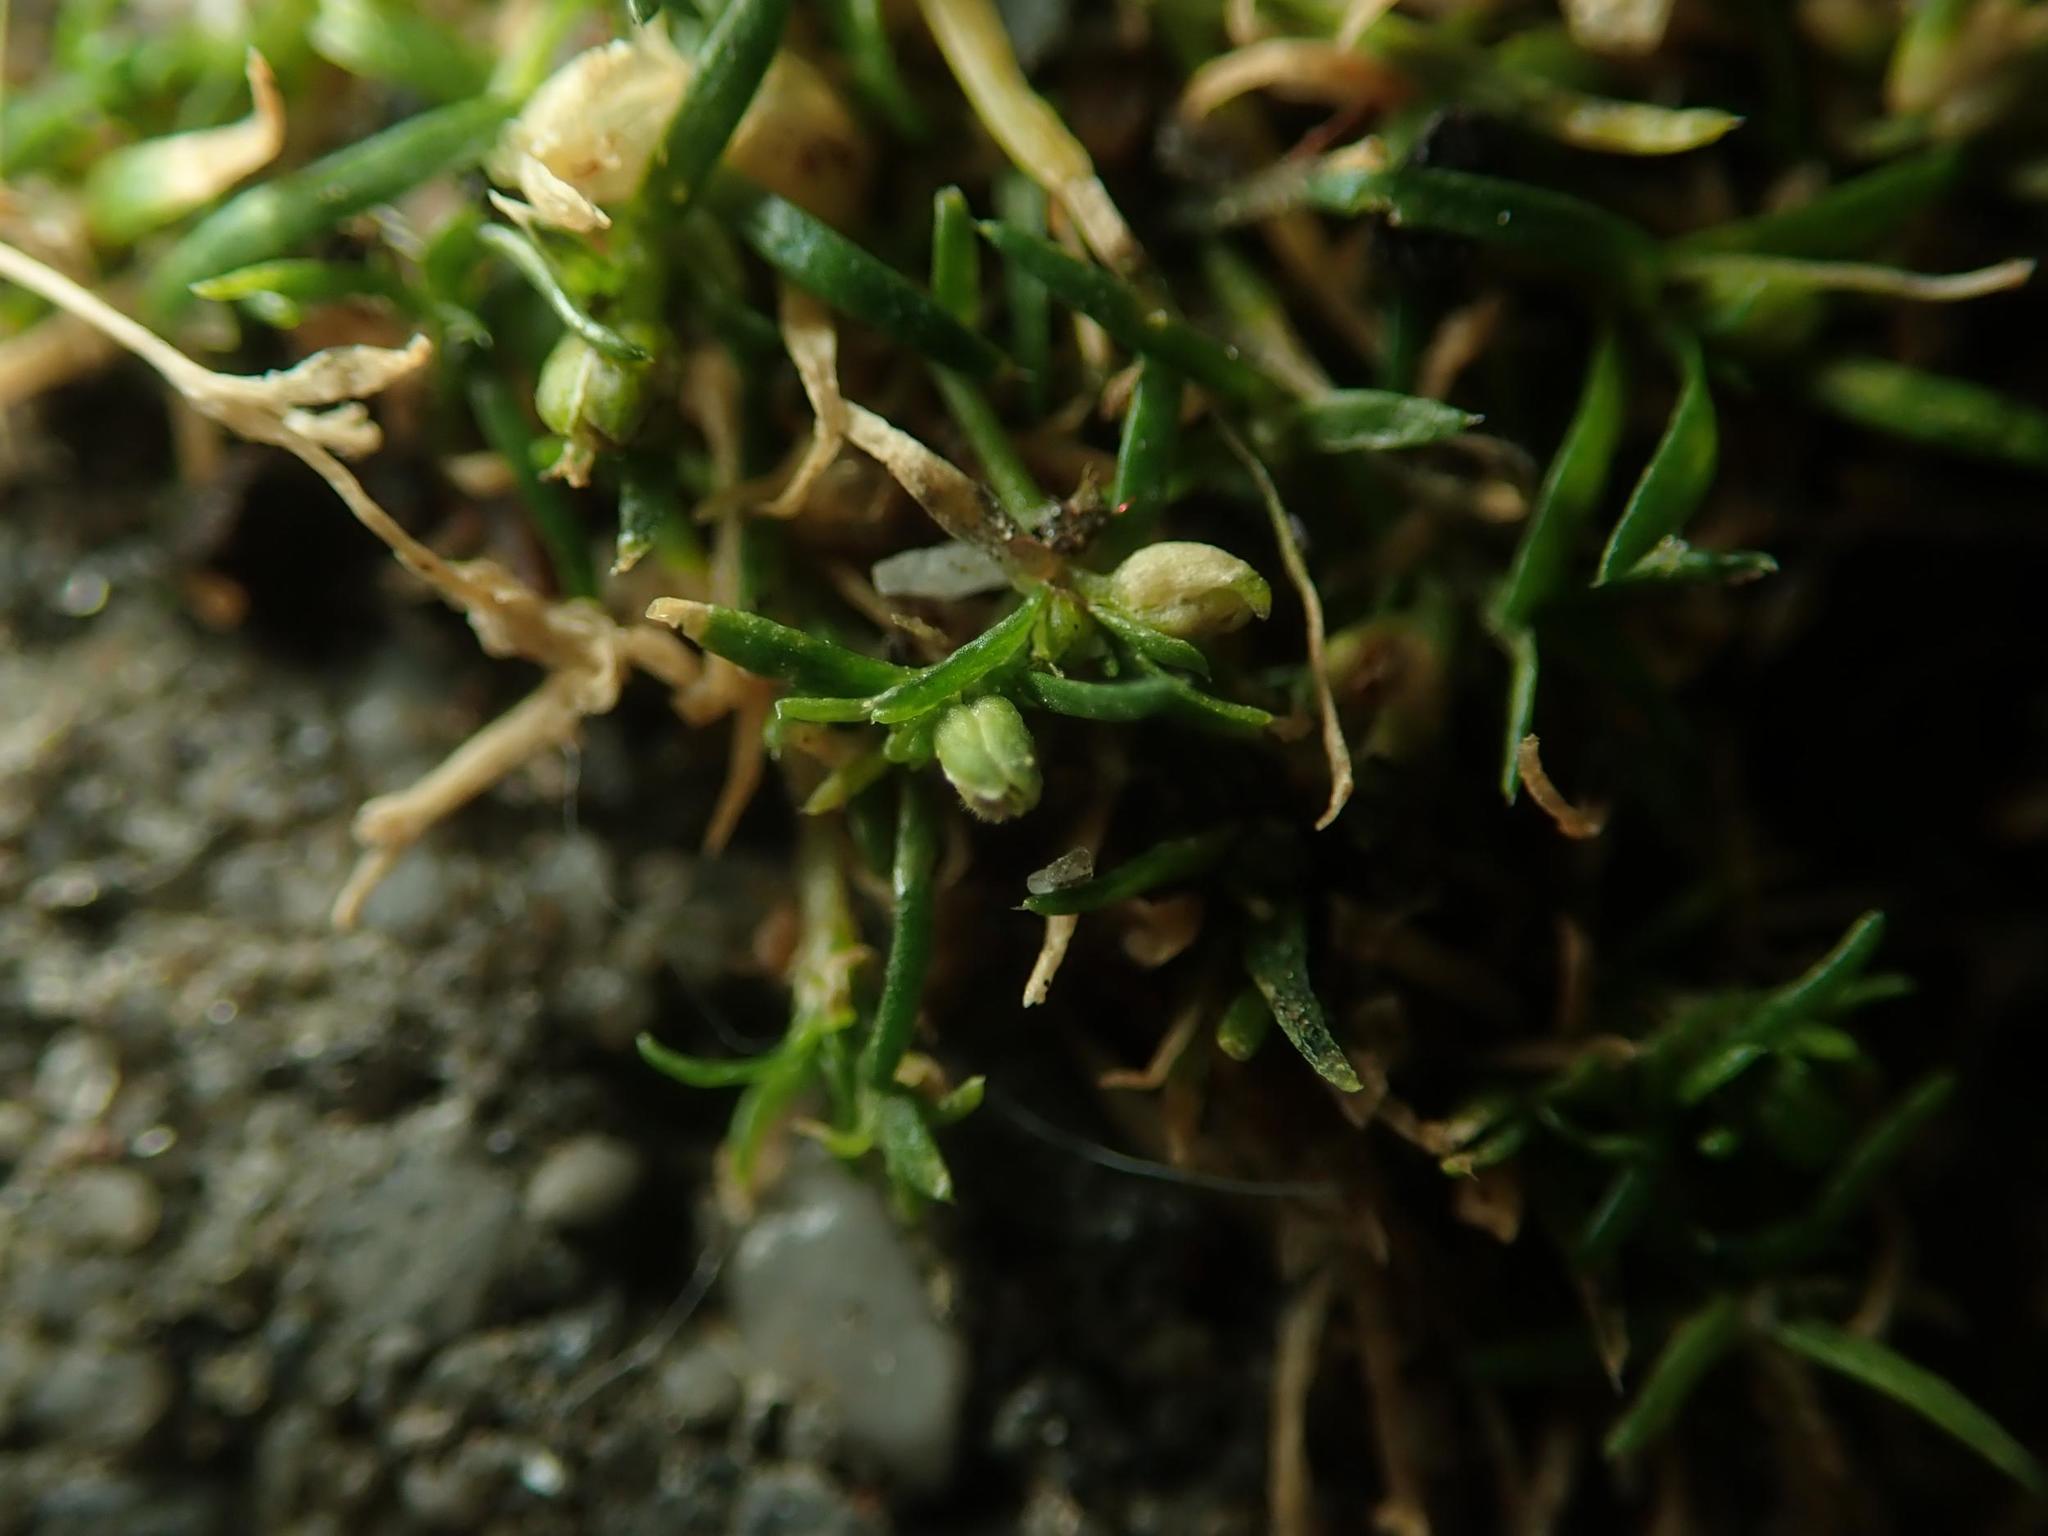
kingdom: Plantae
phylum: Tracheophyta
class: Magnoliopsida
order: Caryophyllales
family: Caryophyllaceae
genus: Sagina
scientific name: Sagina procumbens
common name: Procumbent pearlwort
